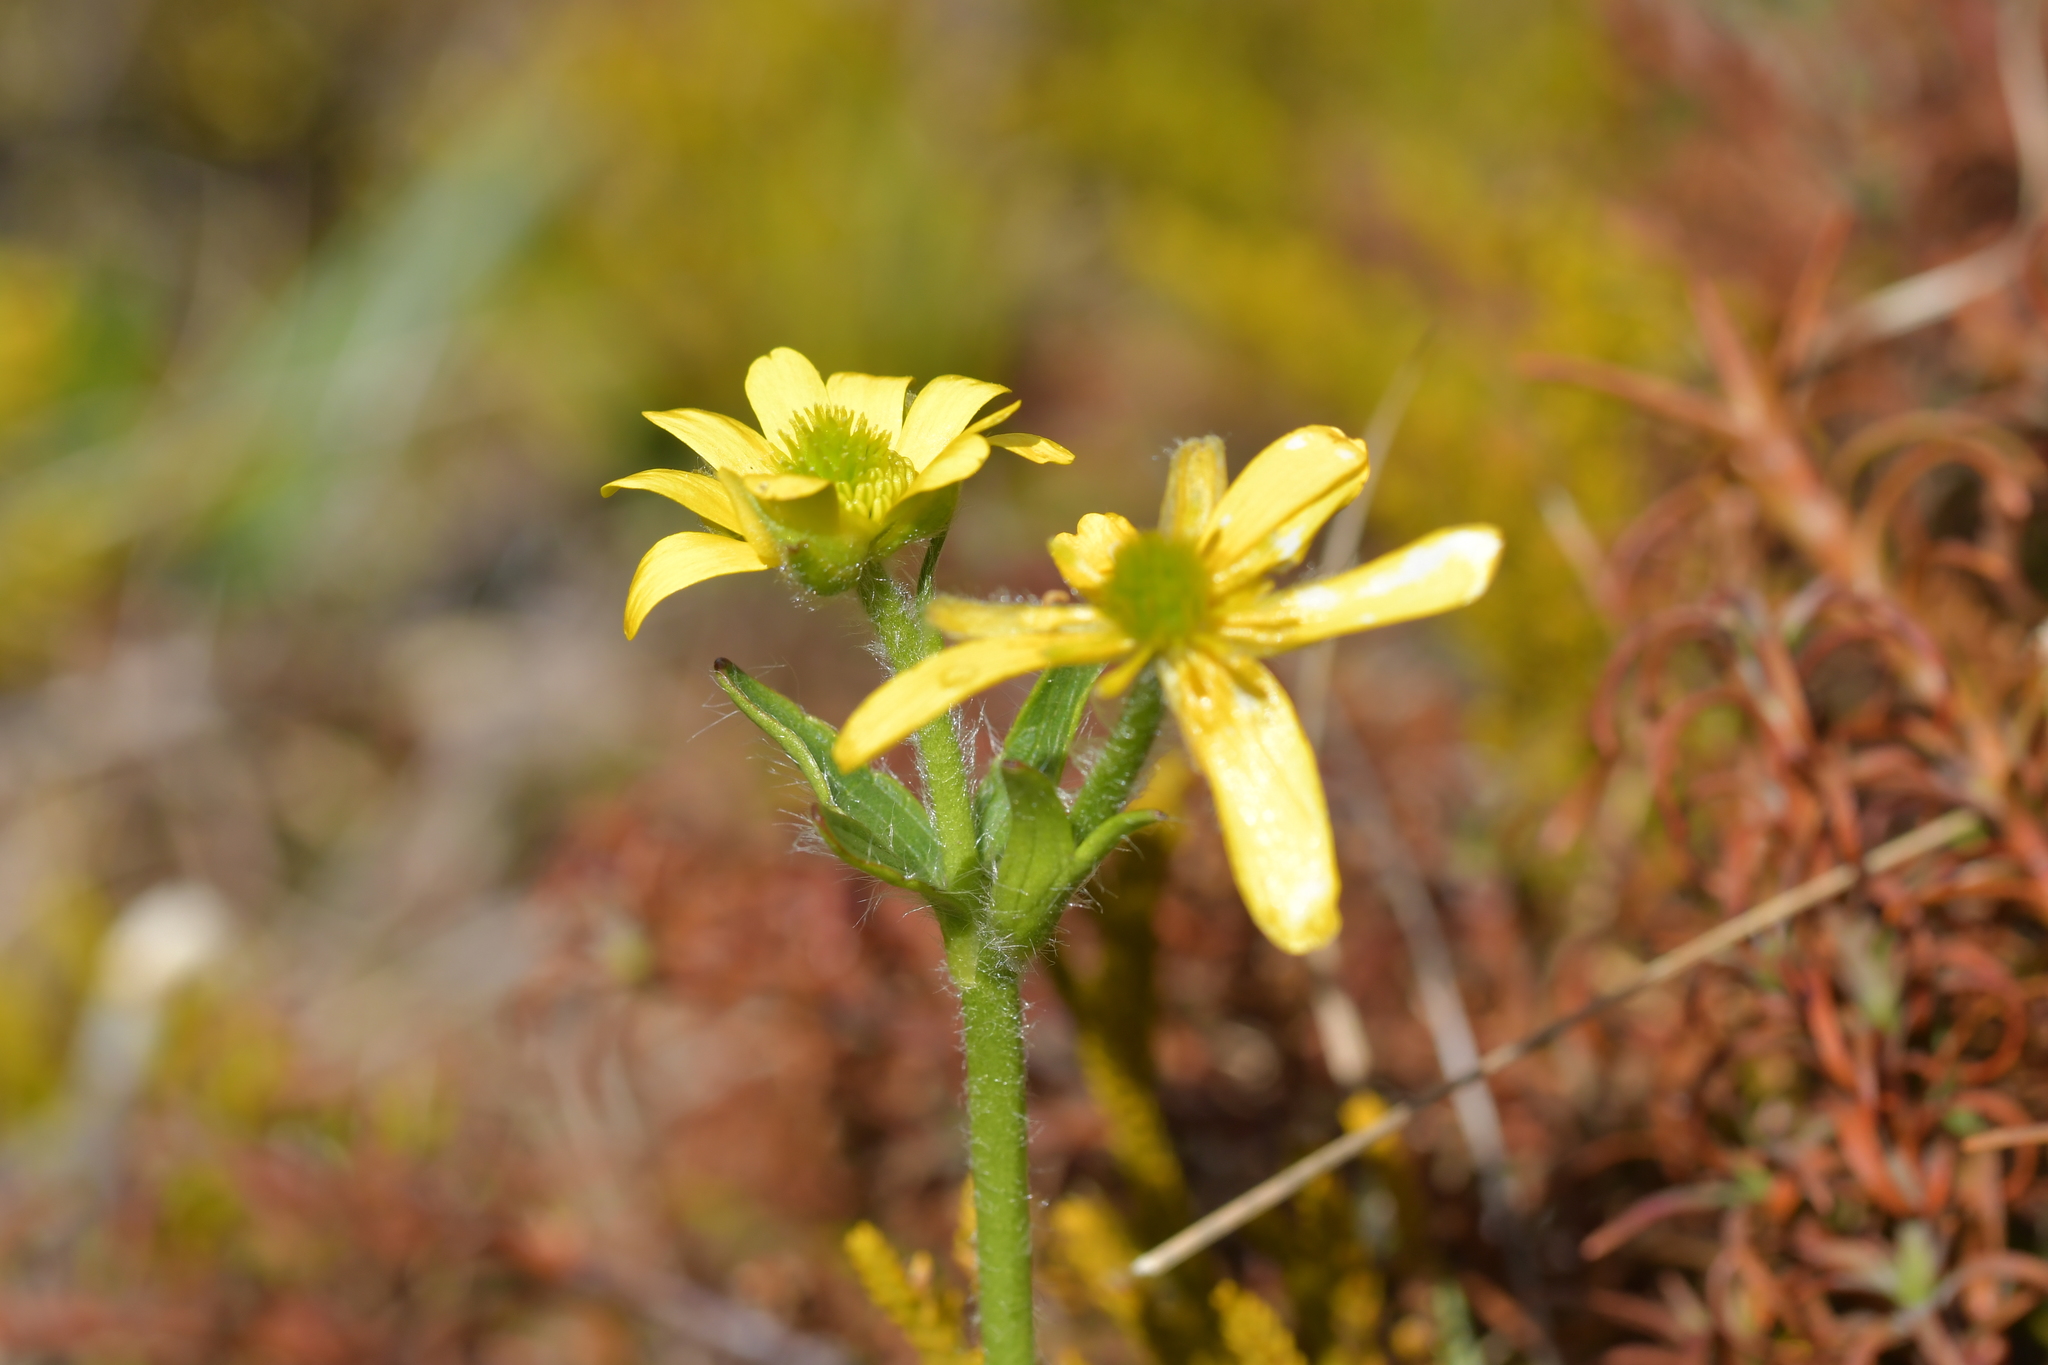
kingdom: Plantae
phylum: Tracheophyta
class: Magnoliopsida
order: Ranunculales
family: Ranunculaceae
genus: Ranunculus
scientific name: Ranunculus nivicola
